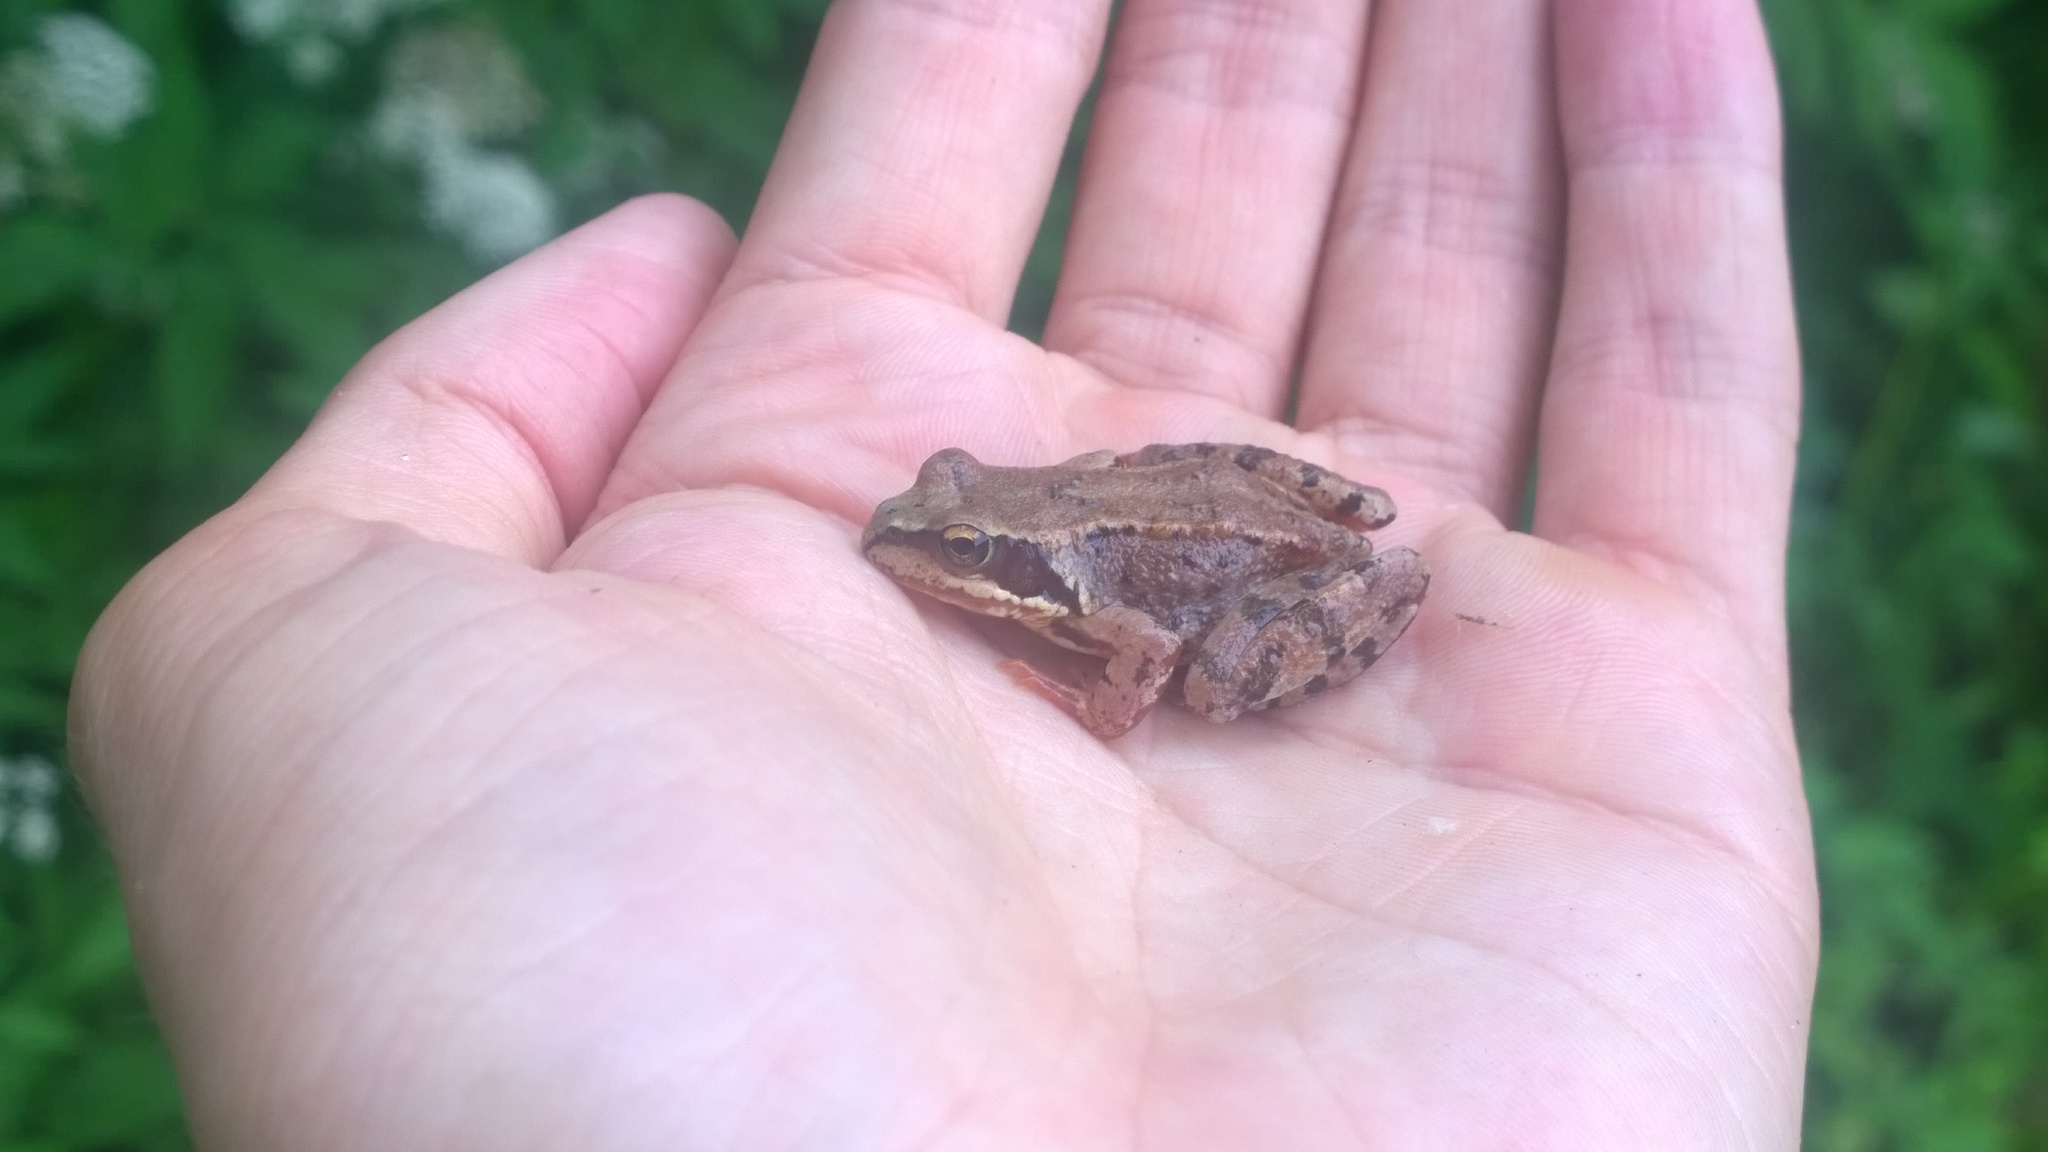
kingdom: Animalia
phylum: Chordata
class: Amphibia
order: Anura
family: Ranidae
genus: Rana
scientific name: Rana temporaria
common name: Common frog
